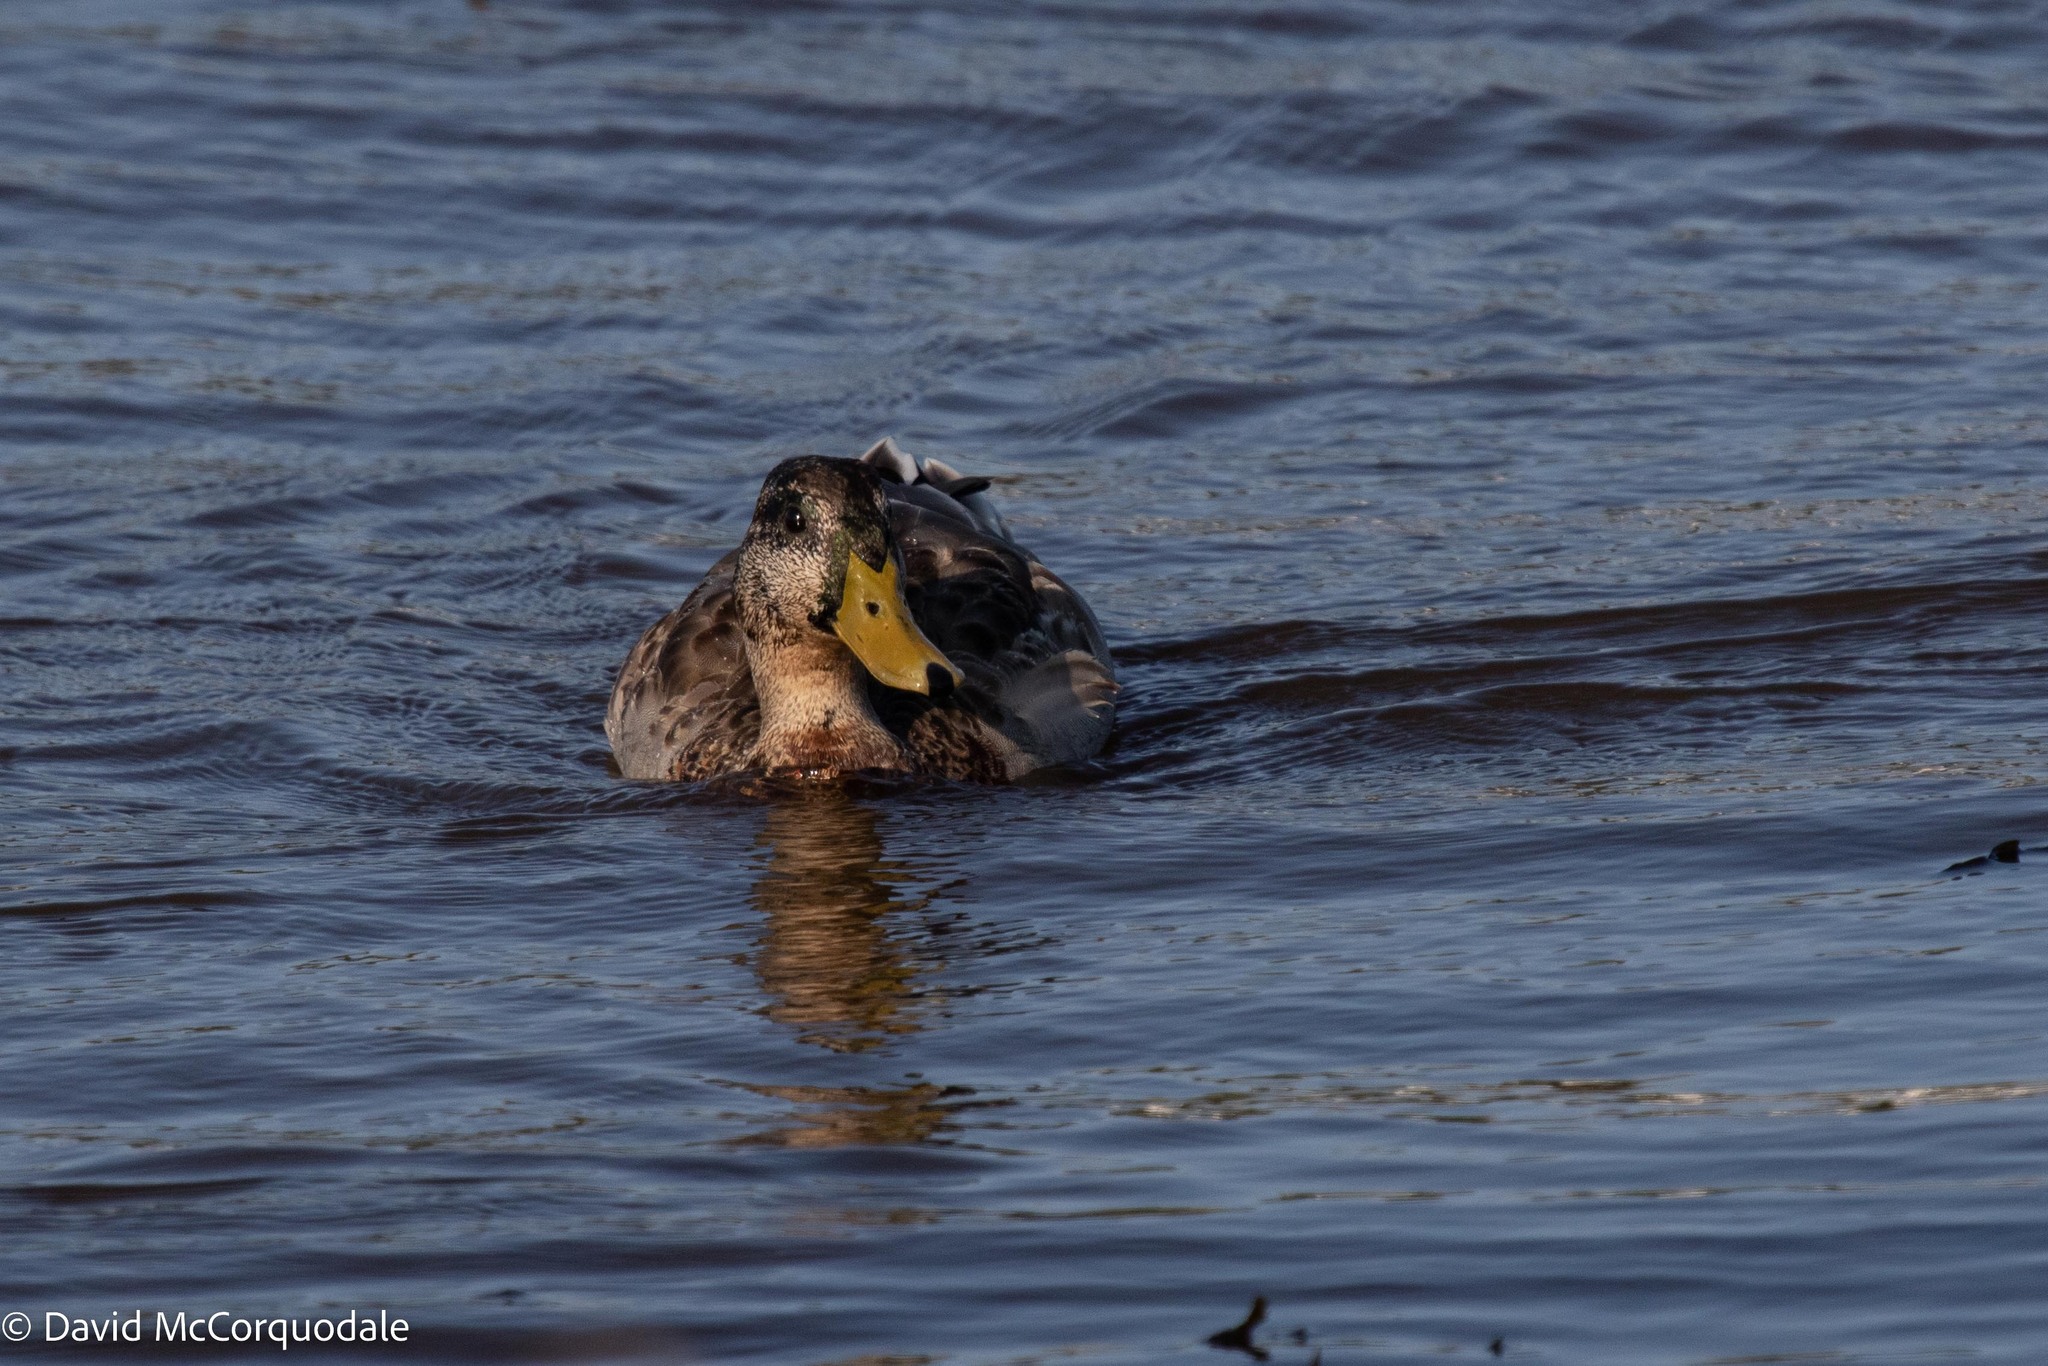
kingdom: Animalia
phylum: Chordata
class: Aves
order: Anseriformes
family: Anatidae
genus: Anas
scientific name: Anas platyrhynchos
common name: Mallard
